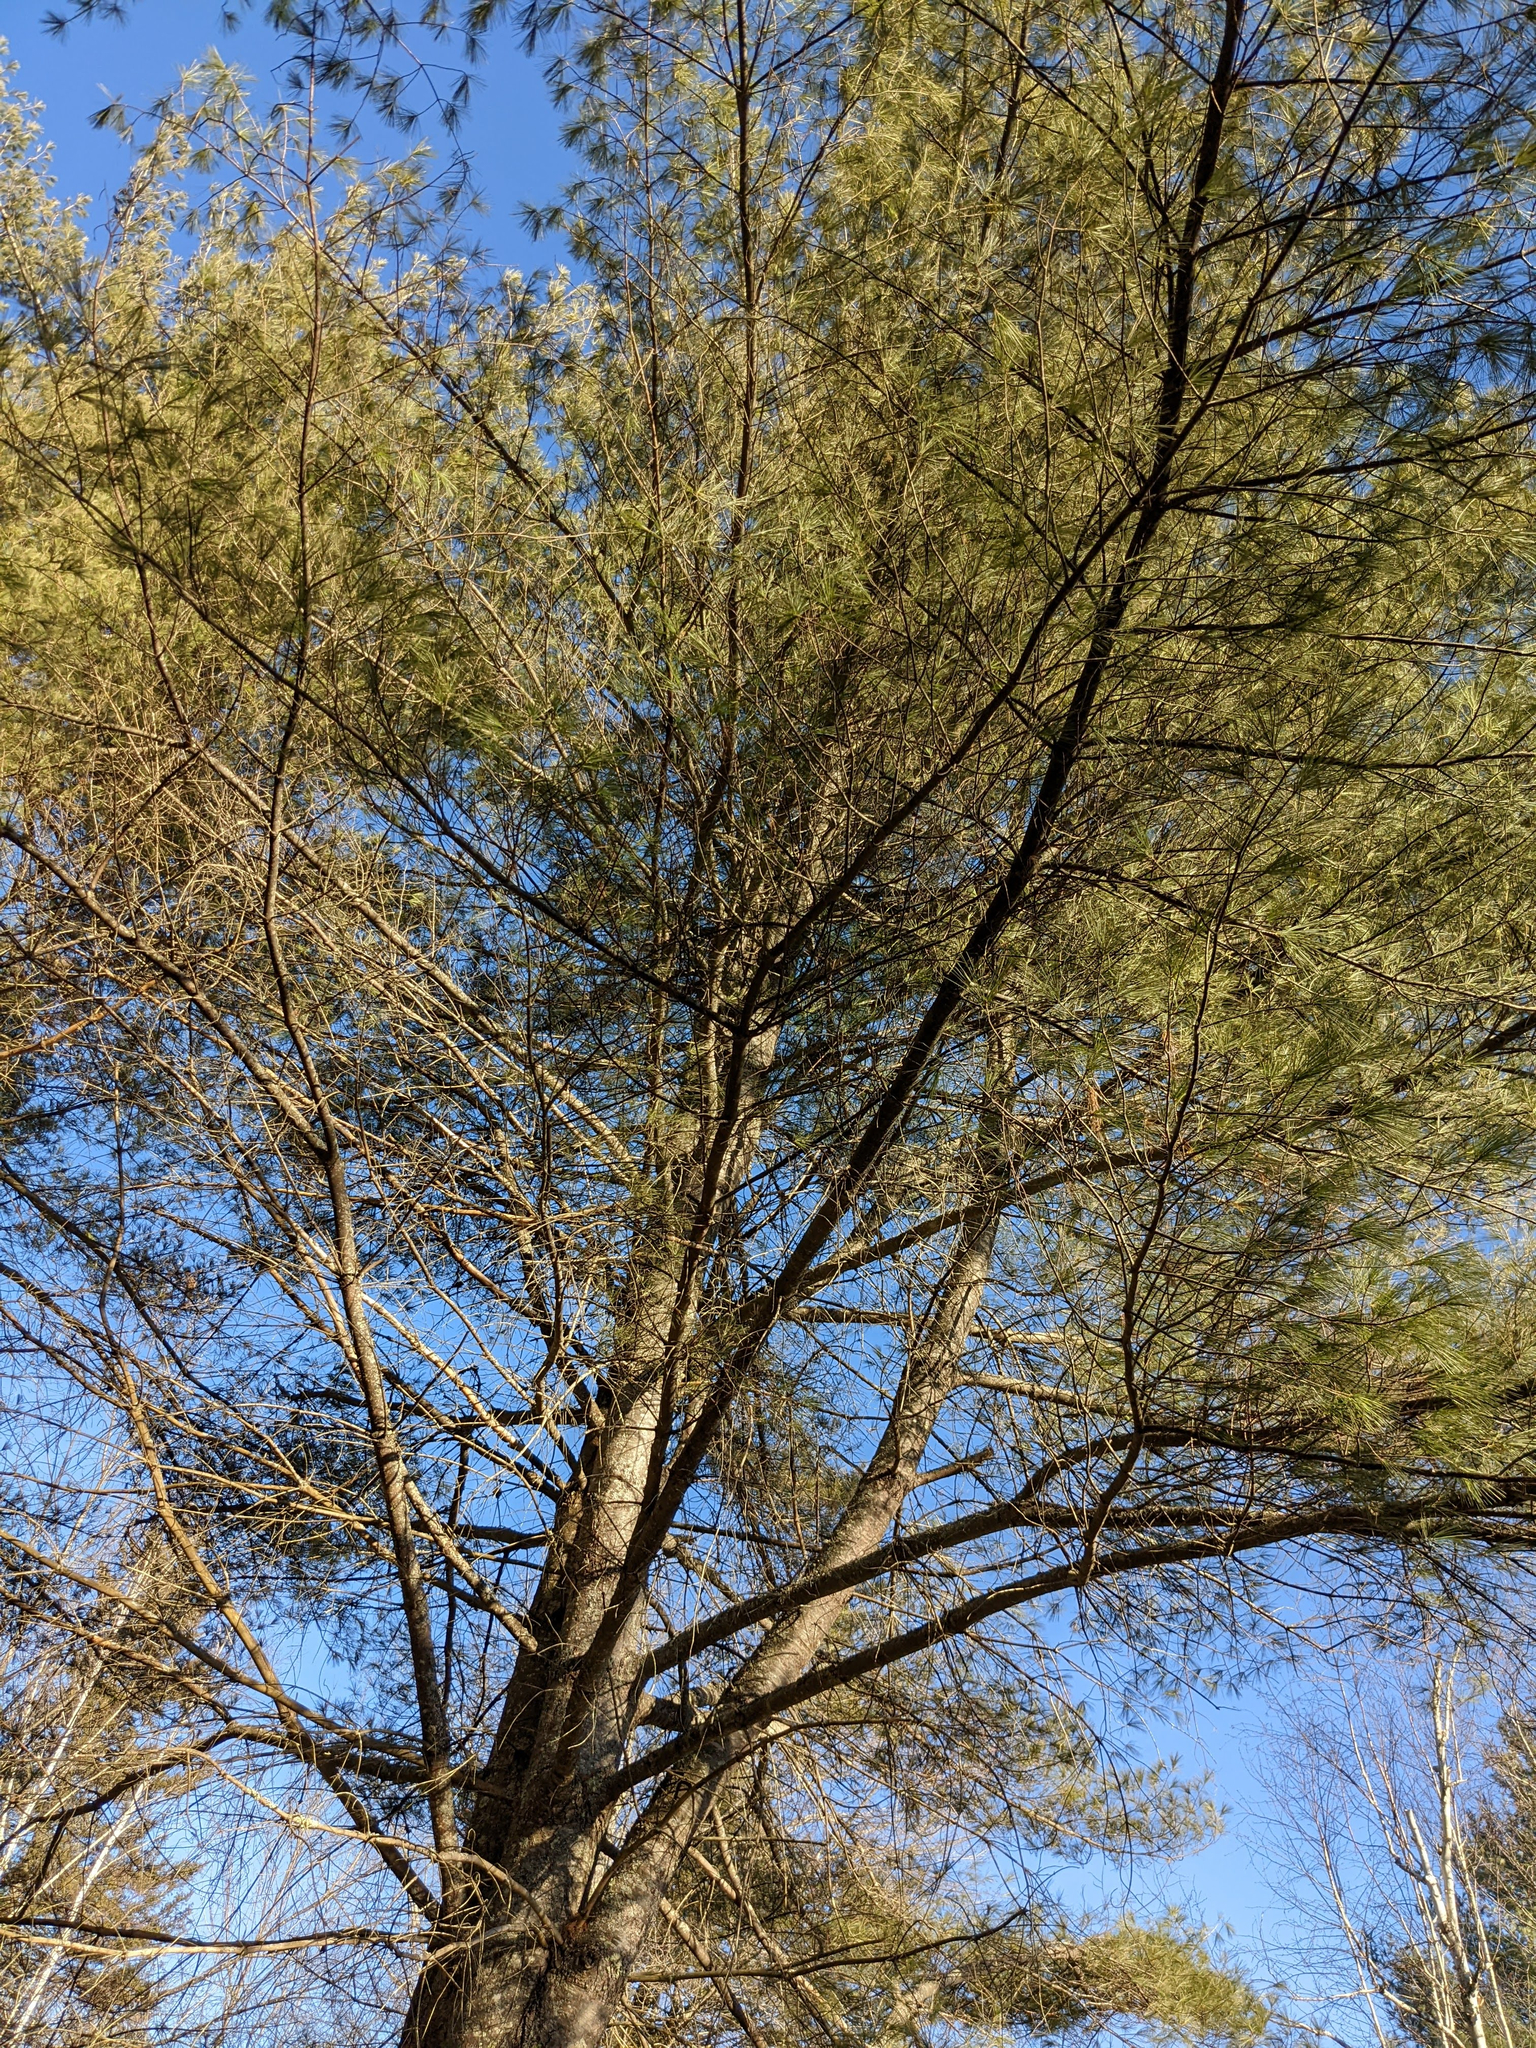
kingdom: Plantae
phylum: Tracheophyta
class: Pinopsida
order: Pinales
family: Pinaceae
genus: Pinus
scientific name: Pinus strobus
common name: Weymouth pine
